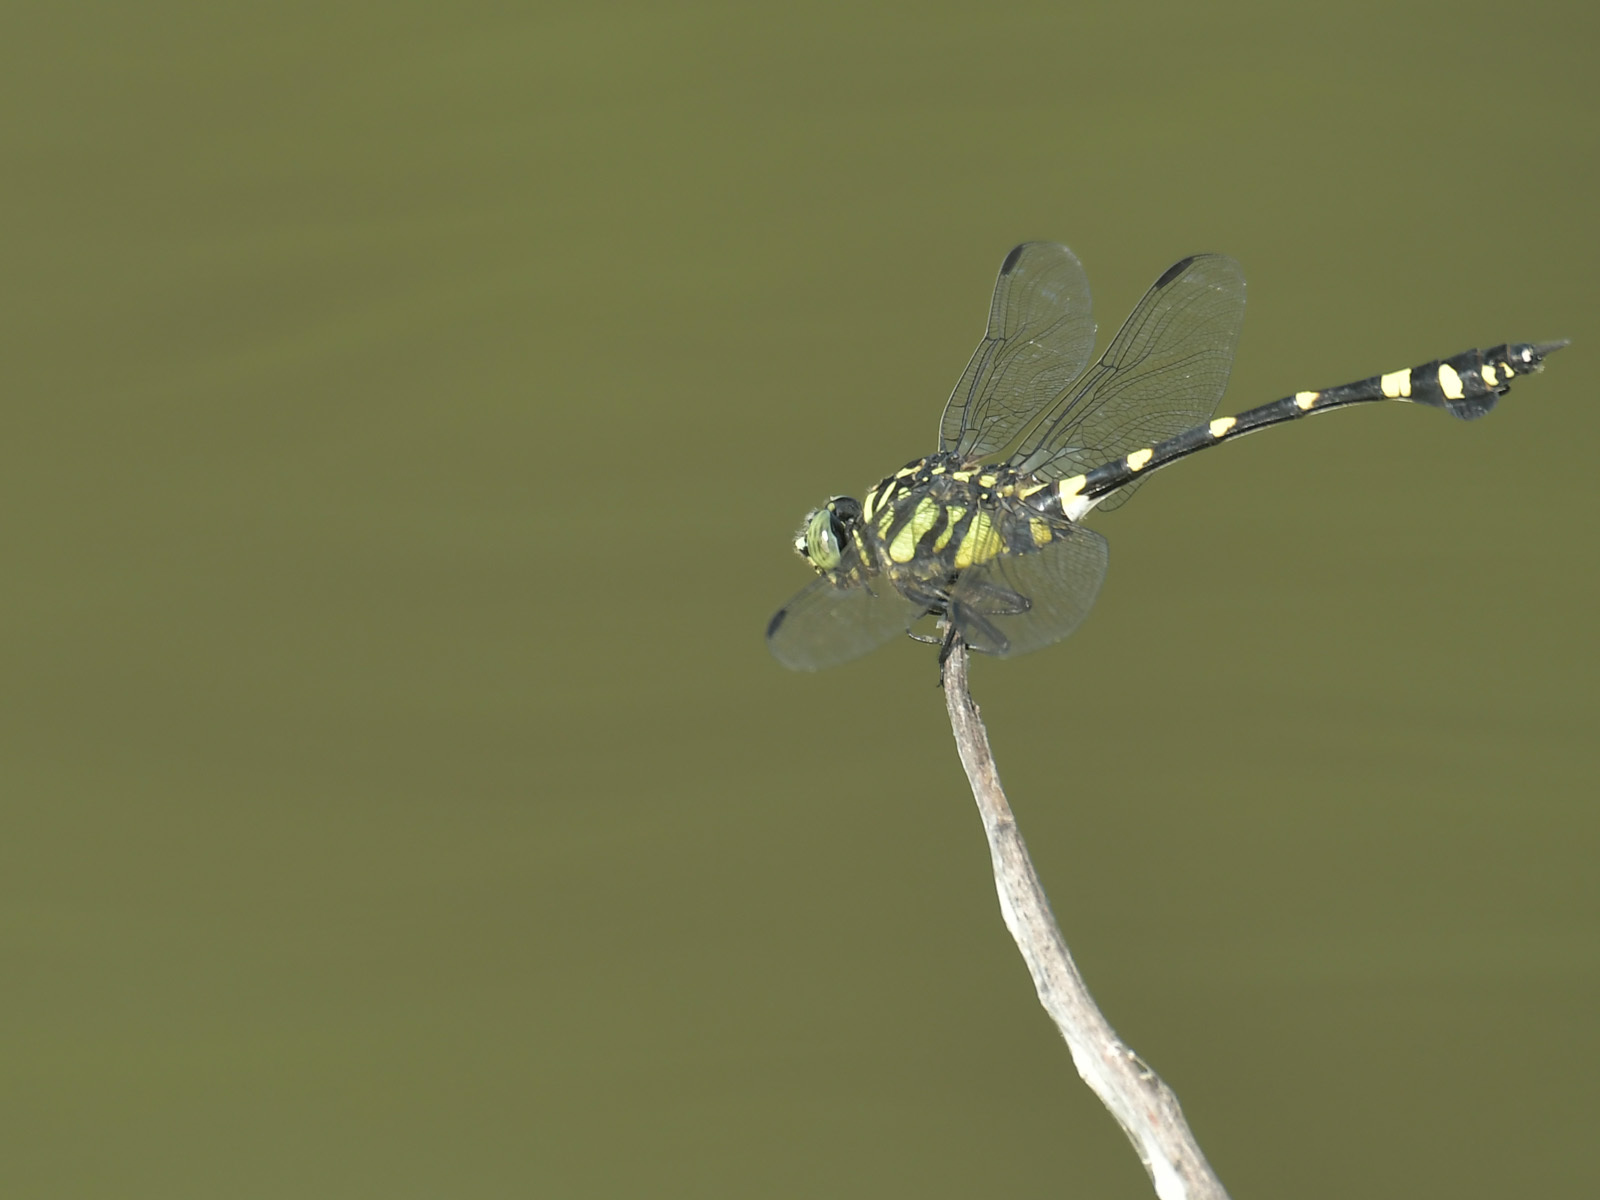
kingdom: Animalia
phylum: Arthropoda
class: Insecta
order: Odonata
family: Gomphidae
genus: Ictinogomphus
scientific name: Ictinogomphus rapax
